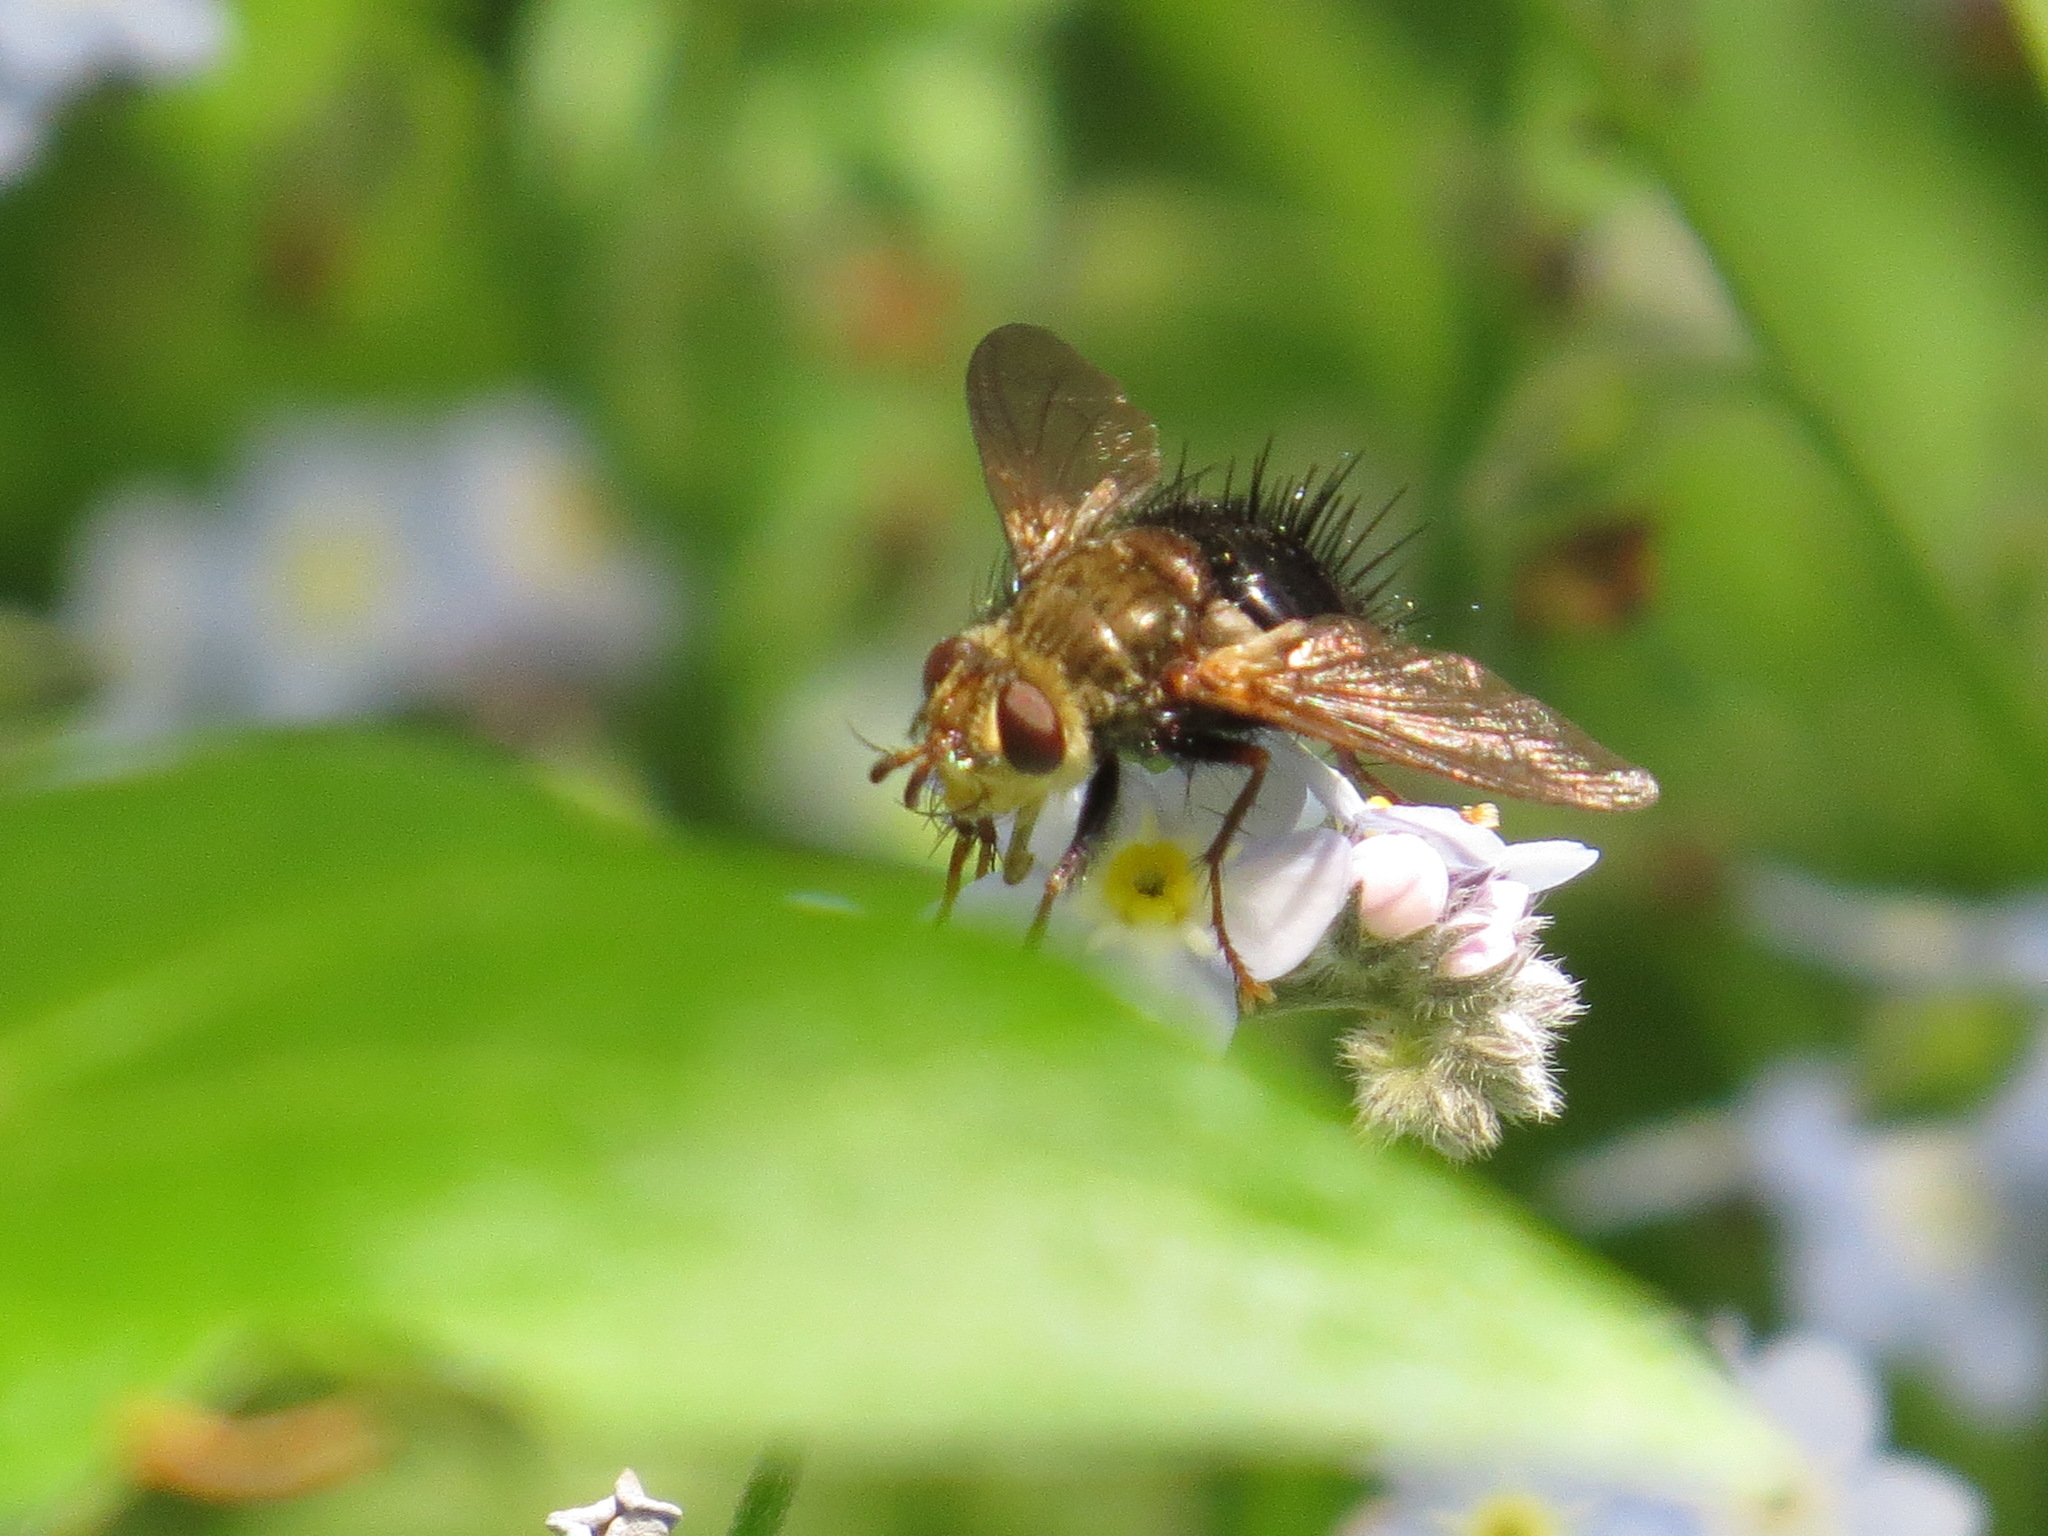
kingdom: Animalia
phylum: Arthropoda
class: Insecta
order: Diptera
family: Tachinidae
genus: Epalpus
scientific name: Epalpus signifer
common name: Early tachinid fly
